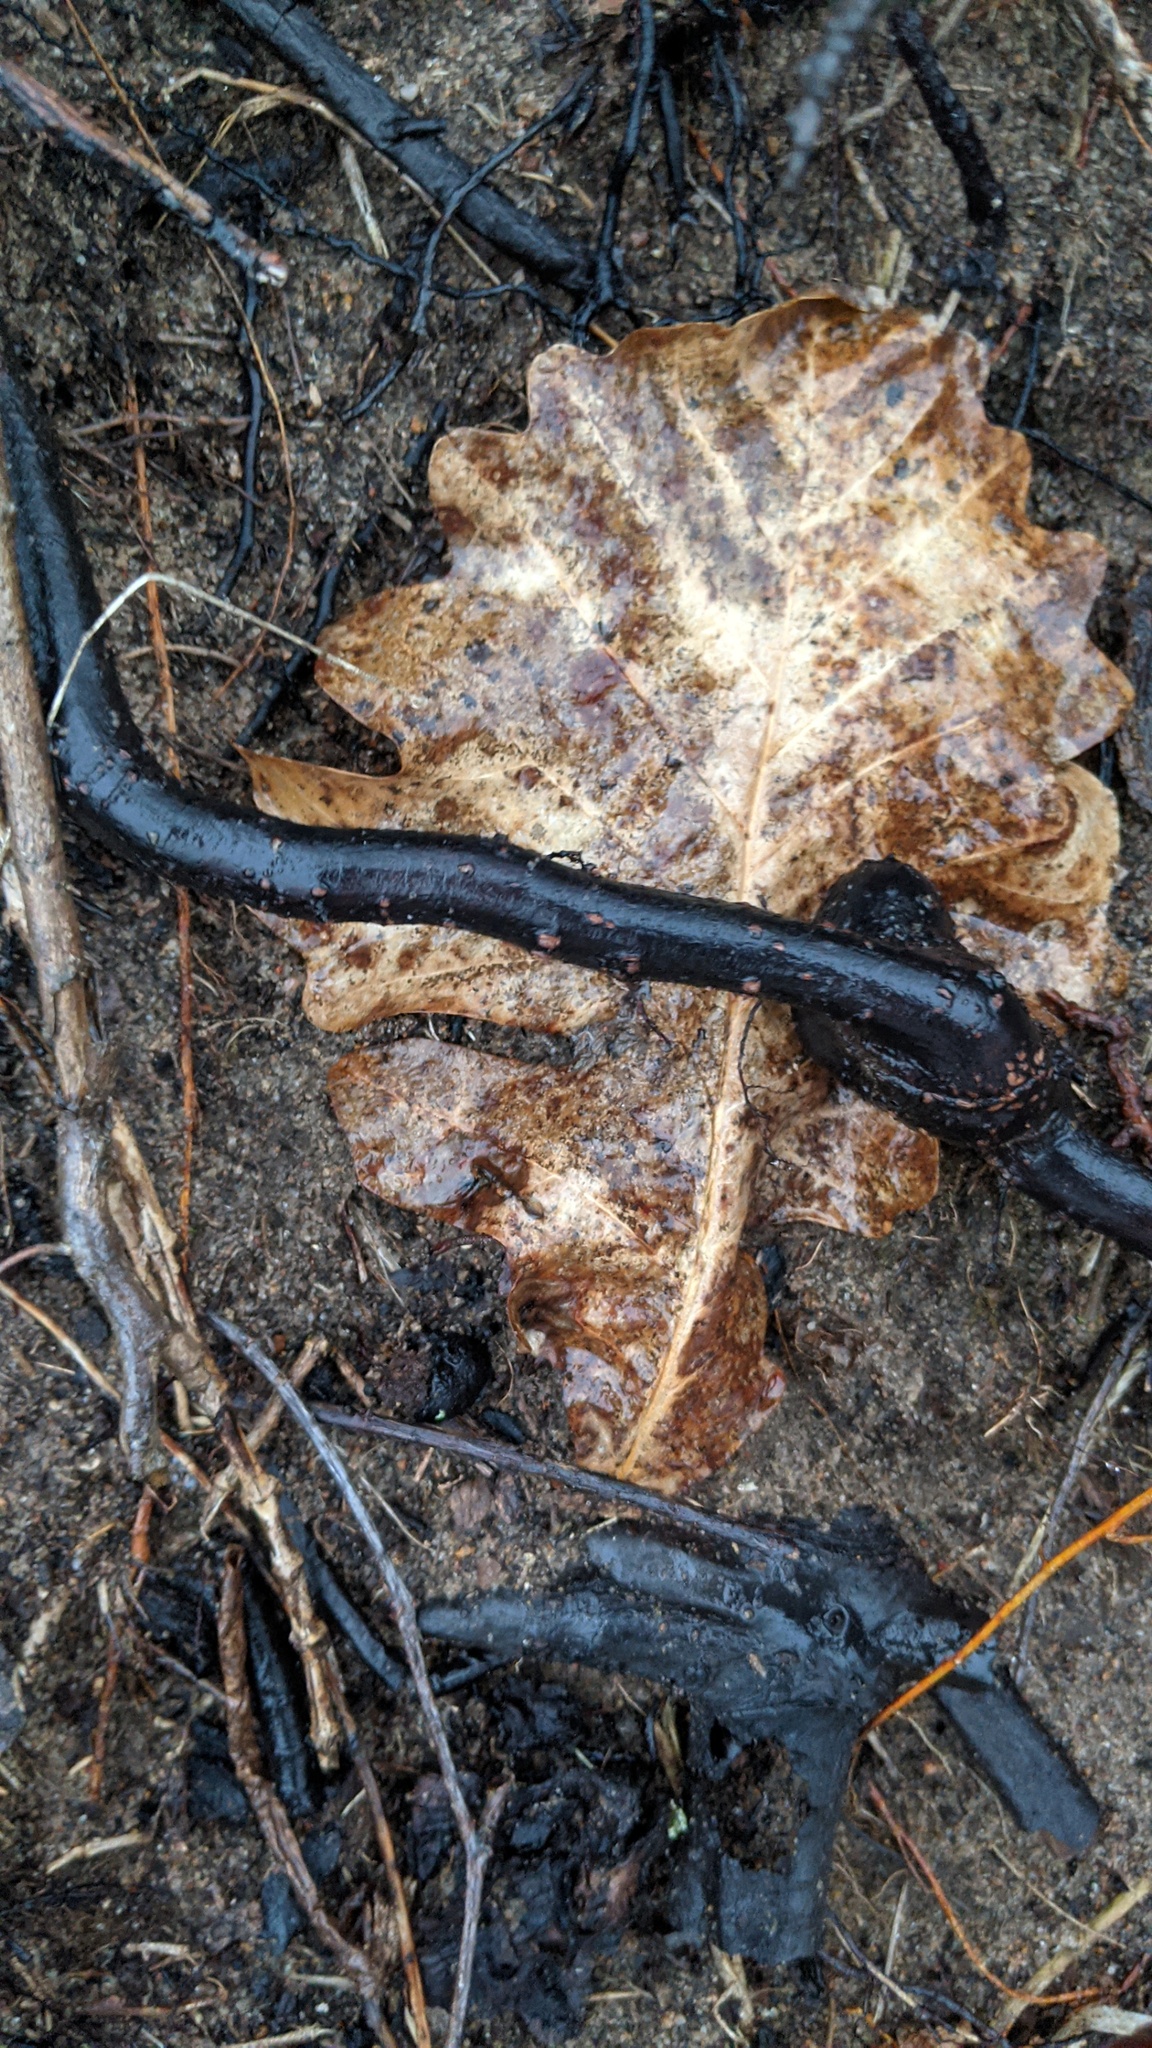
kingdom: Plantae
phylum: Tracheophyta
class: Magnoliopsida
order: Fagales
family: Fagaceae
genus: Quercus
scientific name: Quercus macrocarpa
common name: Bur oak
